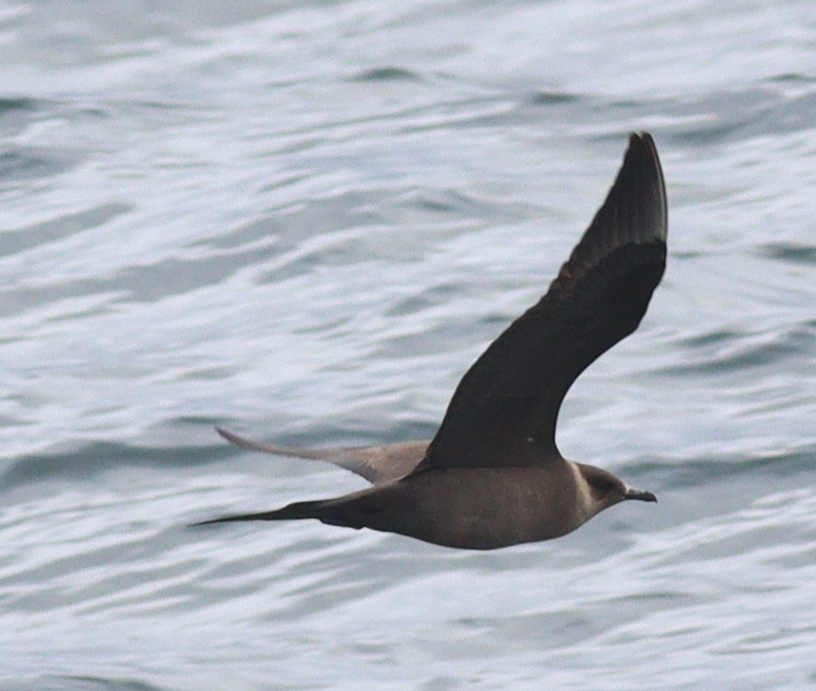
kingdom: Animalia
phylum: Chordata
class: Aves
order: Charadriiformes
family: Stercorariidae
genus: Stercorarius
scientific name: Stercorarius parasiticus
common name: Parasitic jaeger
